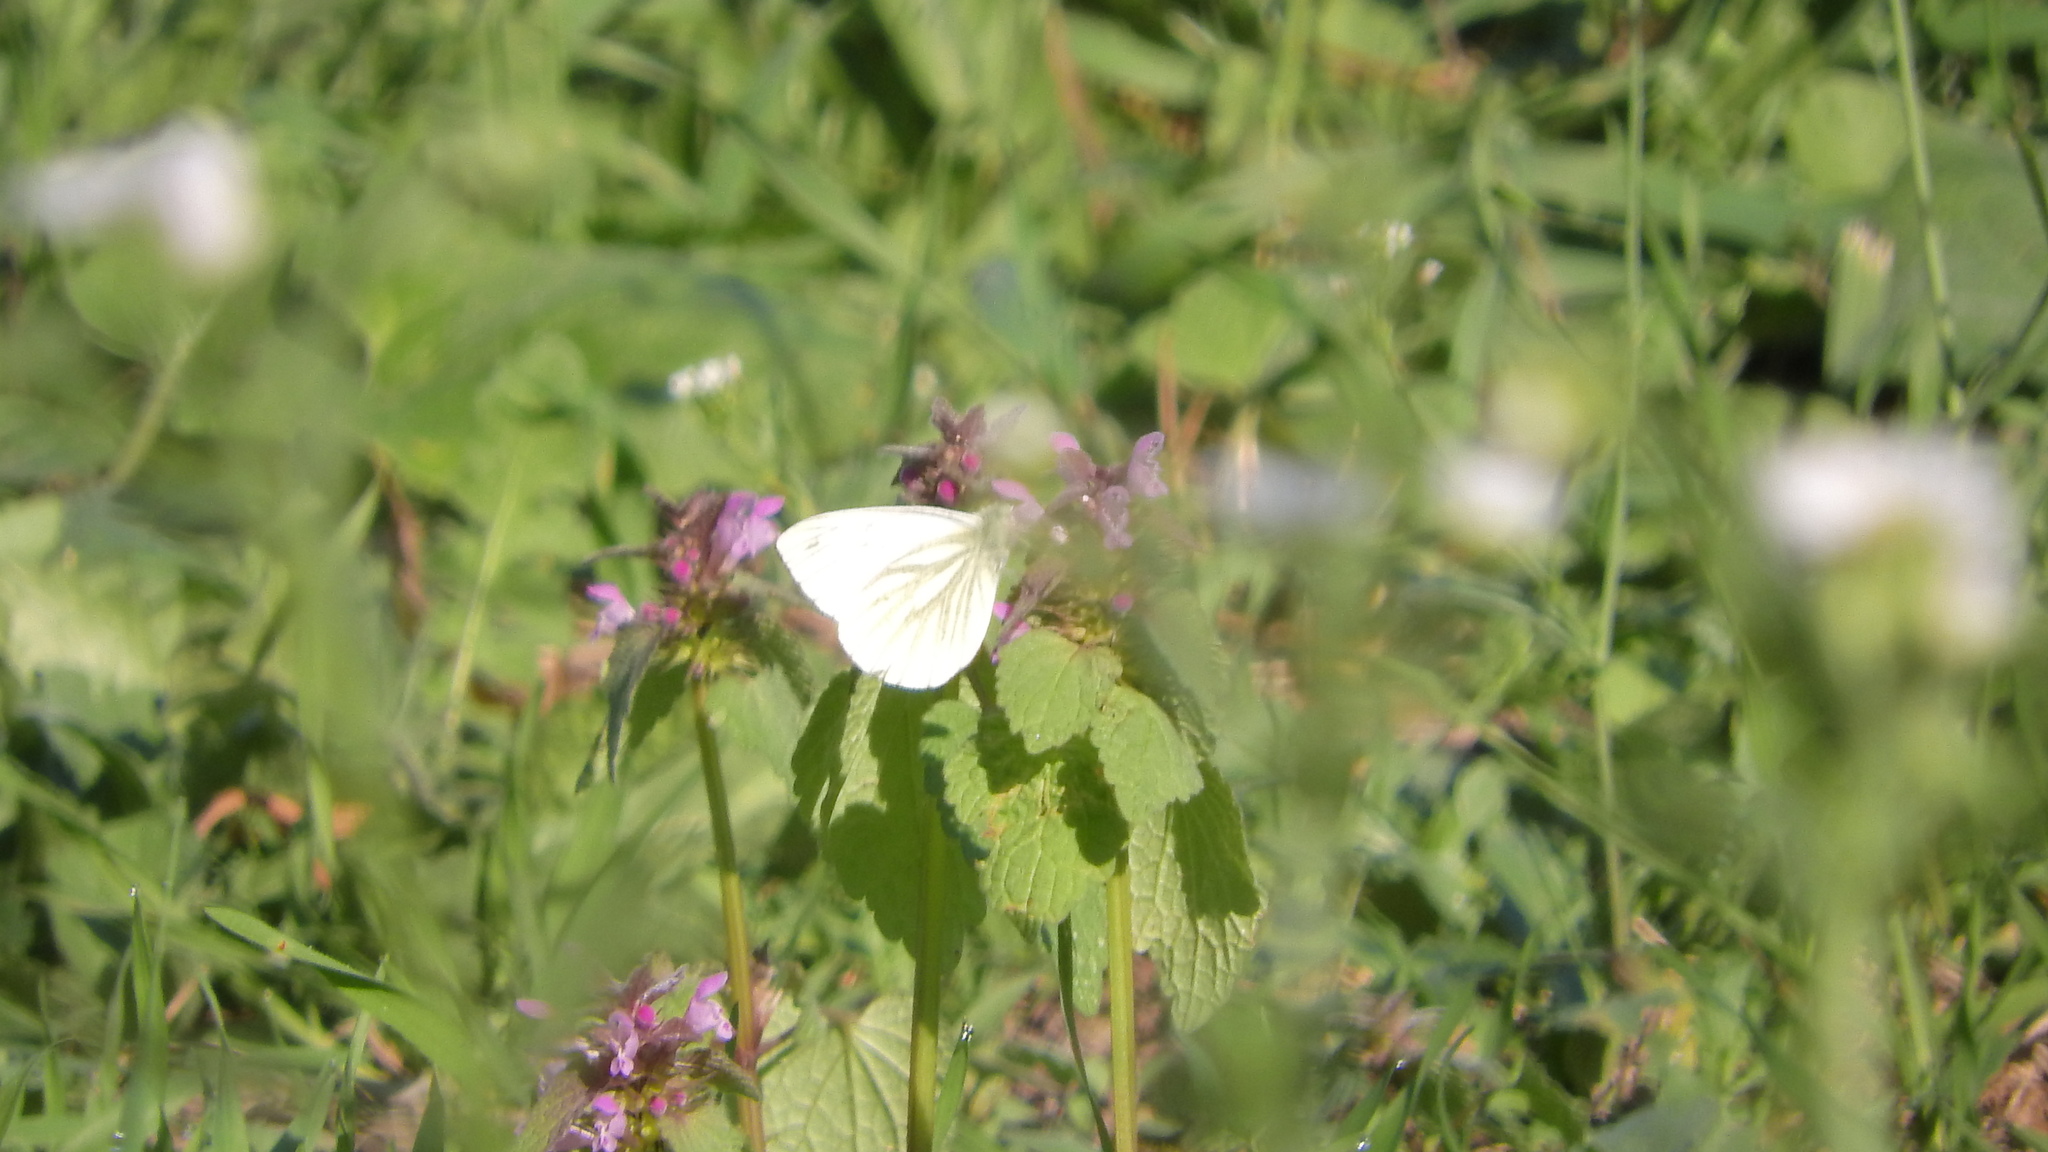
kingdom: Animalia
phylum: Arthropoda
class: Insecta
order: Lepidoptera
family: Pieridae
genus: Pieris
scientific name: Pieris napi
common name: Green-veined white
